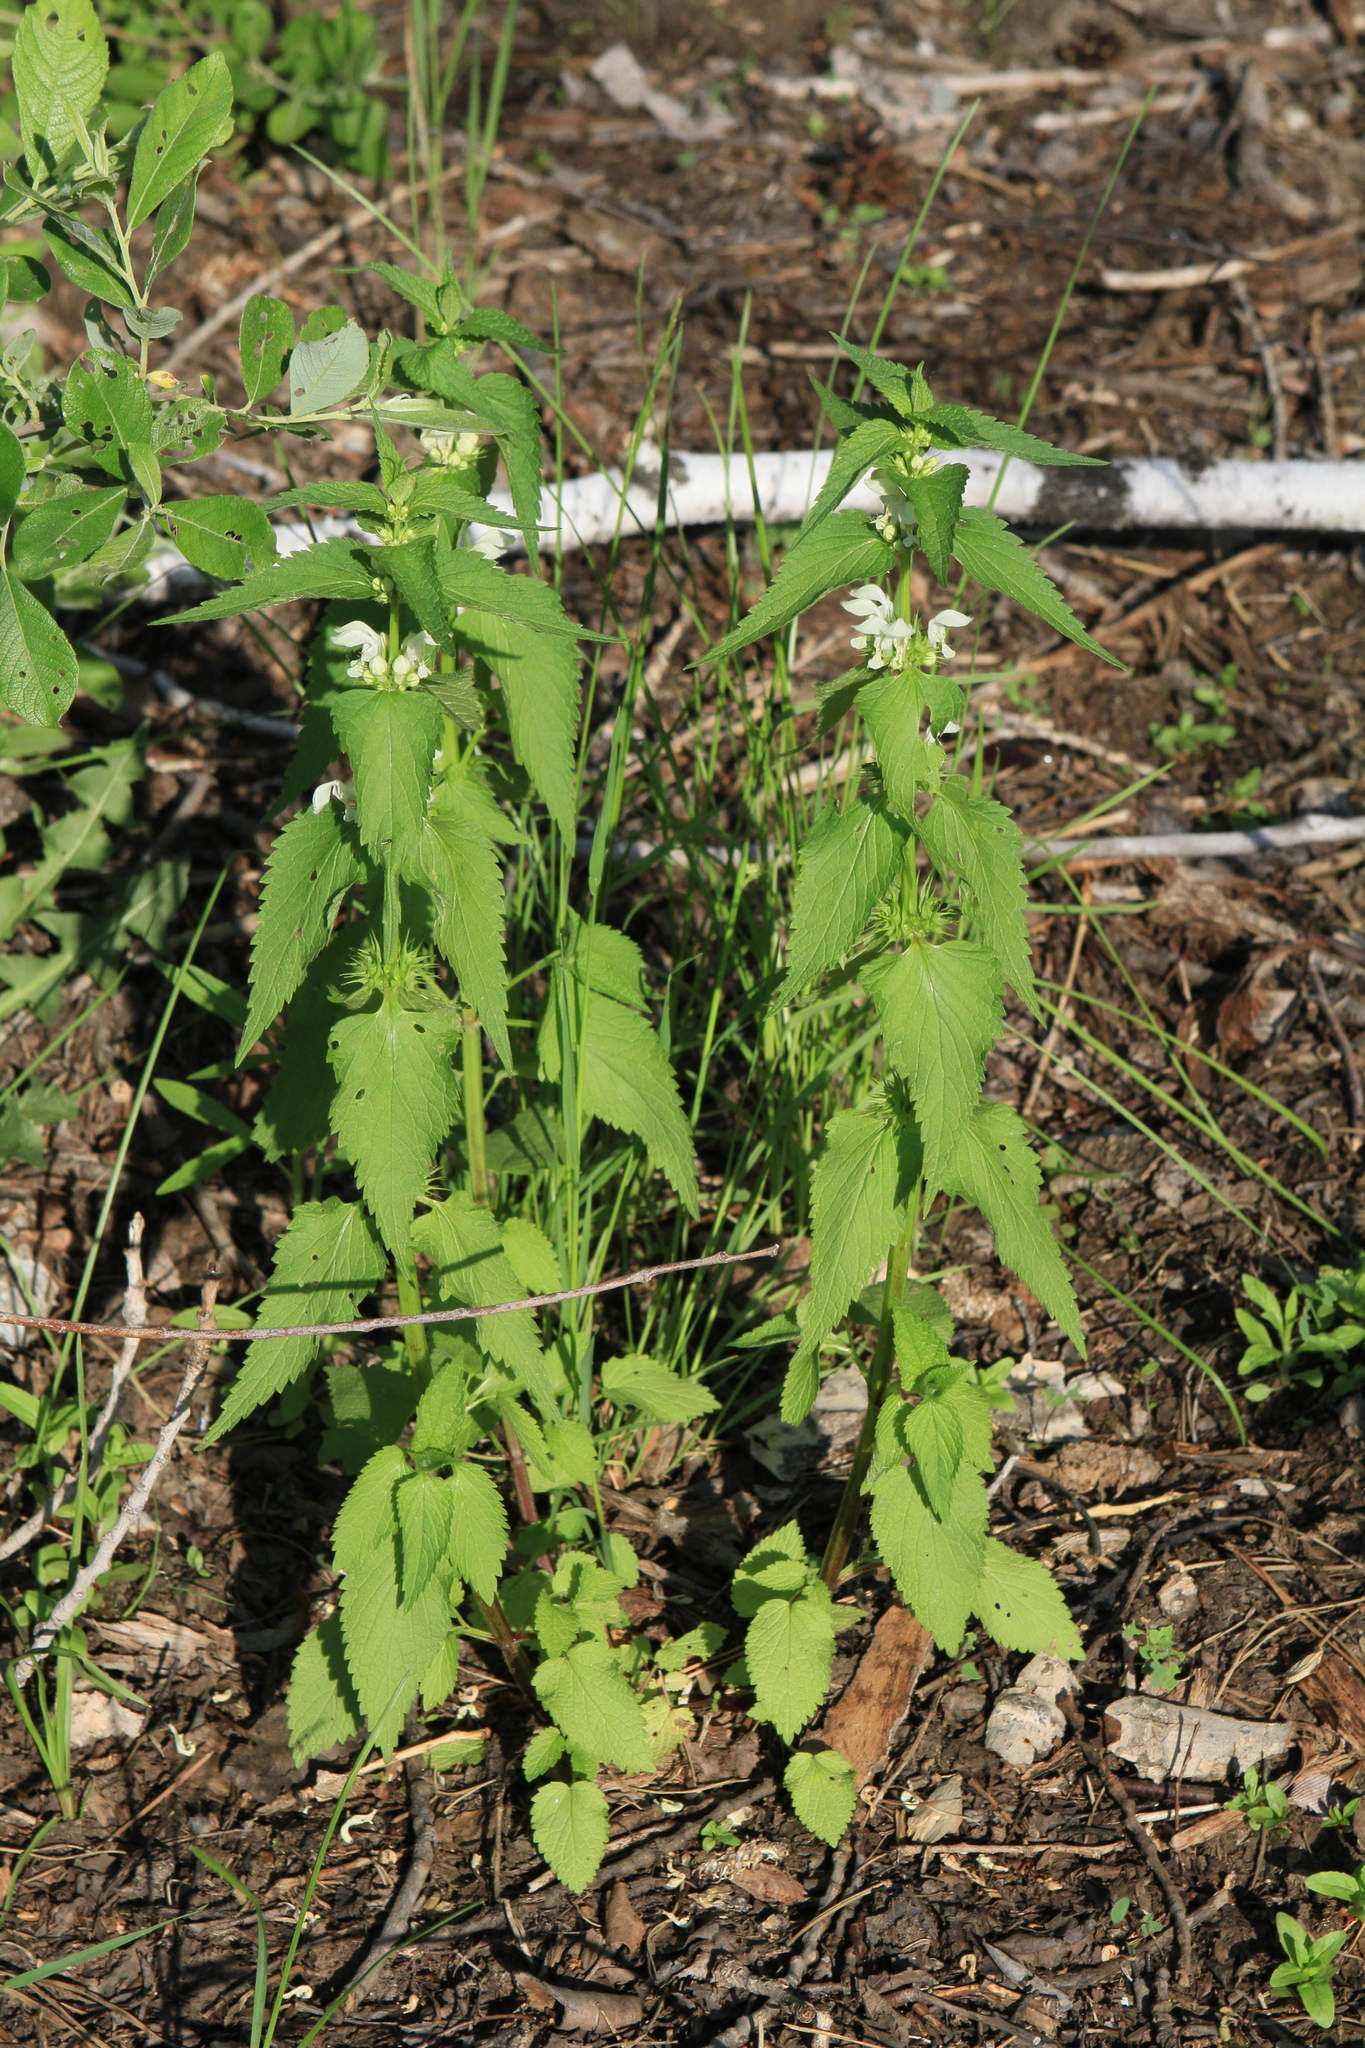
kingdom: Plantae
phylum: Tracheophyta
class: Magnoliopsida
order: Lamiales
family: Lamiaceae
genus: Lamium
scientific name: Lamium album
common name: White dead-nettle
